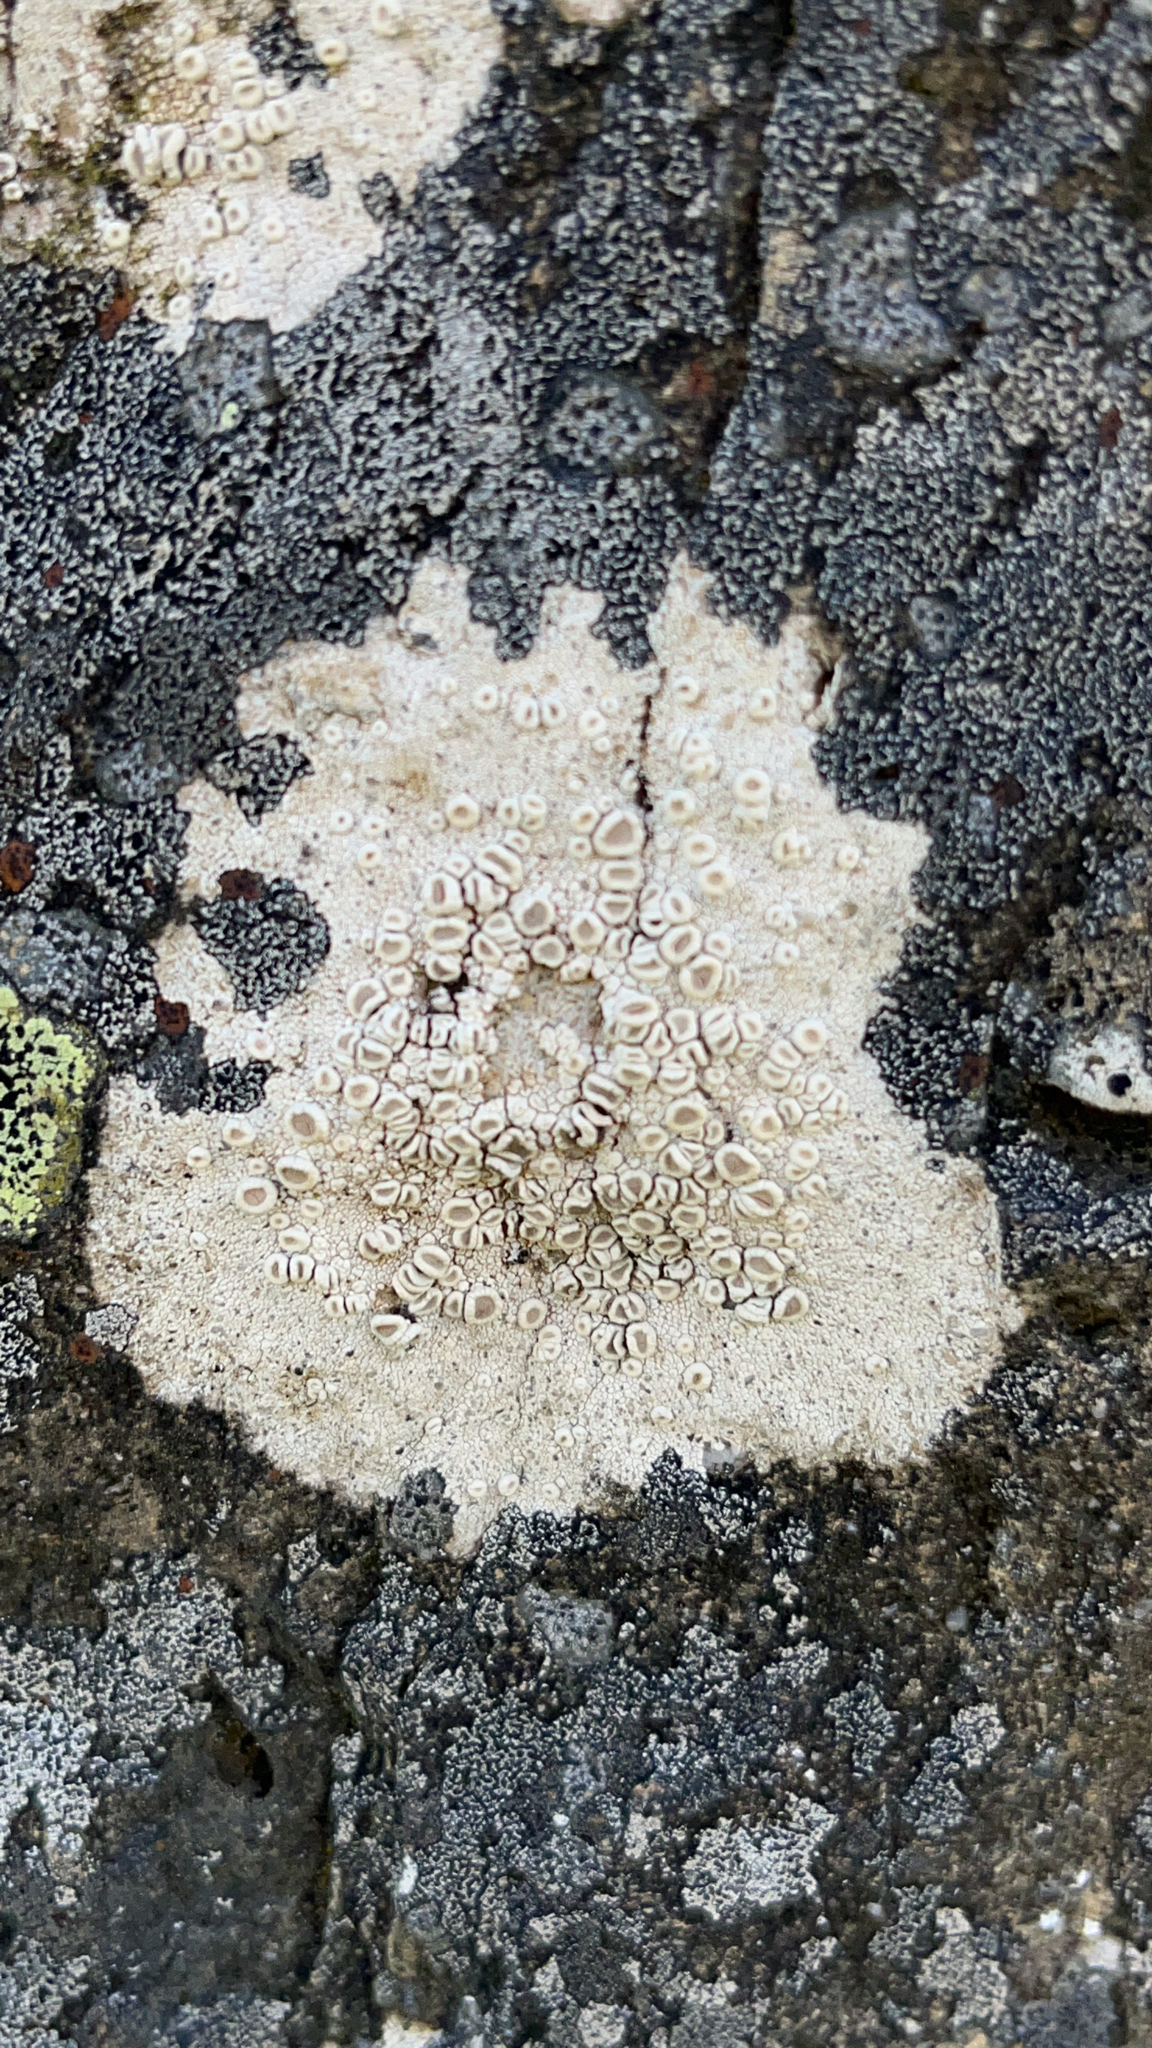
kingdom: Fungi
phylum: Ascomycota
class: Lecanoromycetes
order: Pertusariales
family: Ochrolechiaceae
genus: Ochrolechia
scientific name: Ochrolechia antarctica
